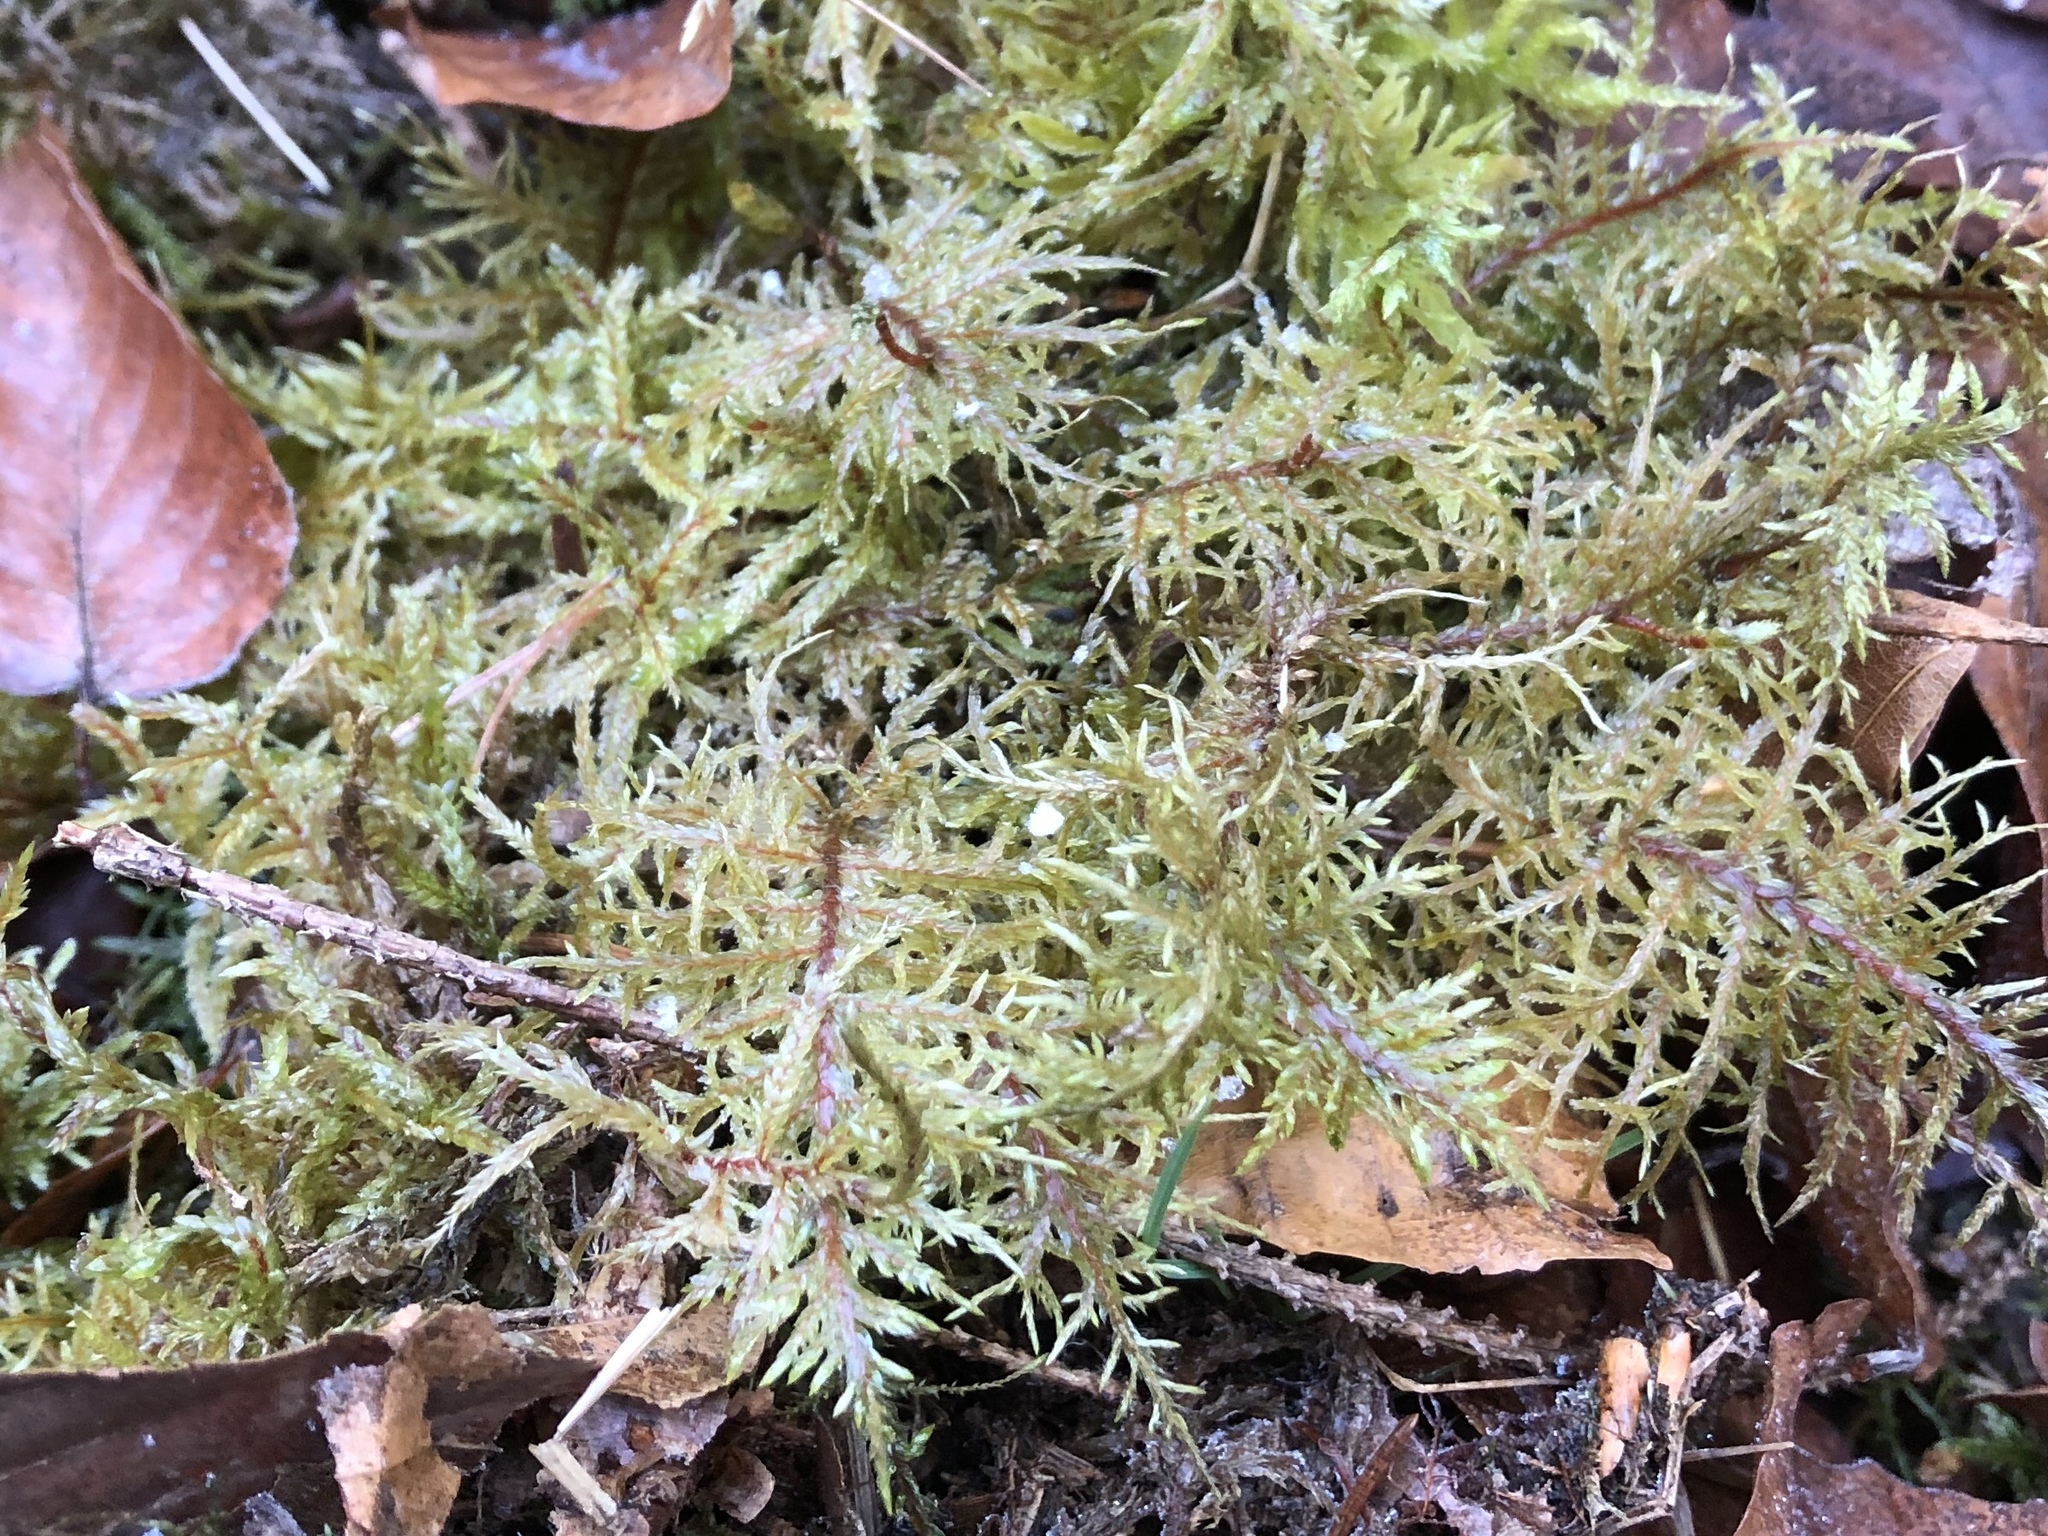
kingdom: Plantae
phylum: Bryophyta
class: Bryopsida
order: Hypnales
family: Hylocomiaceae
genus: Hylocomium
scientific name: Hylocomium splendens
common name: Stairstep moss
